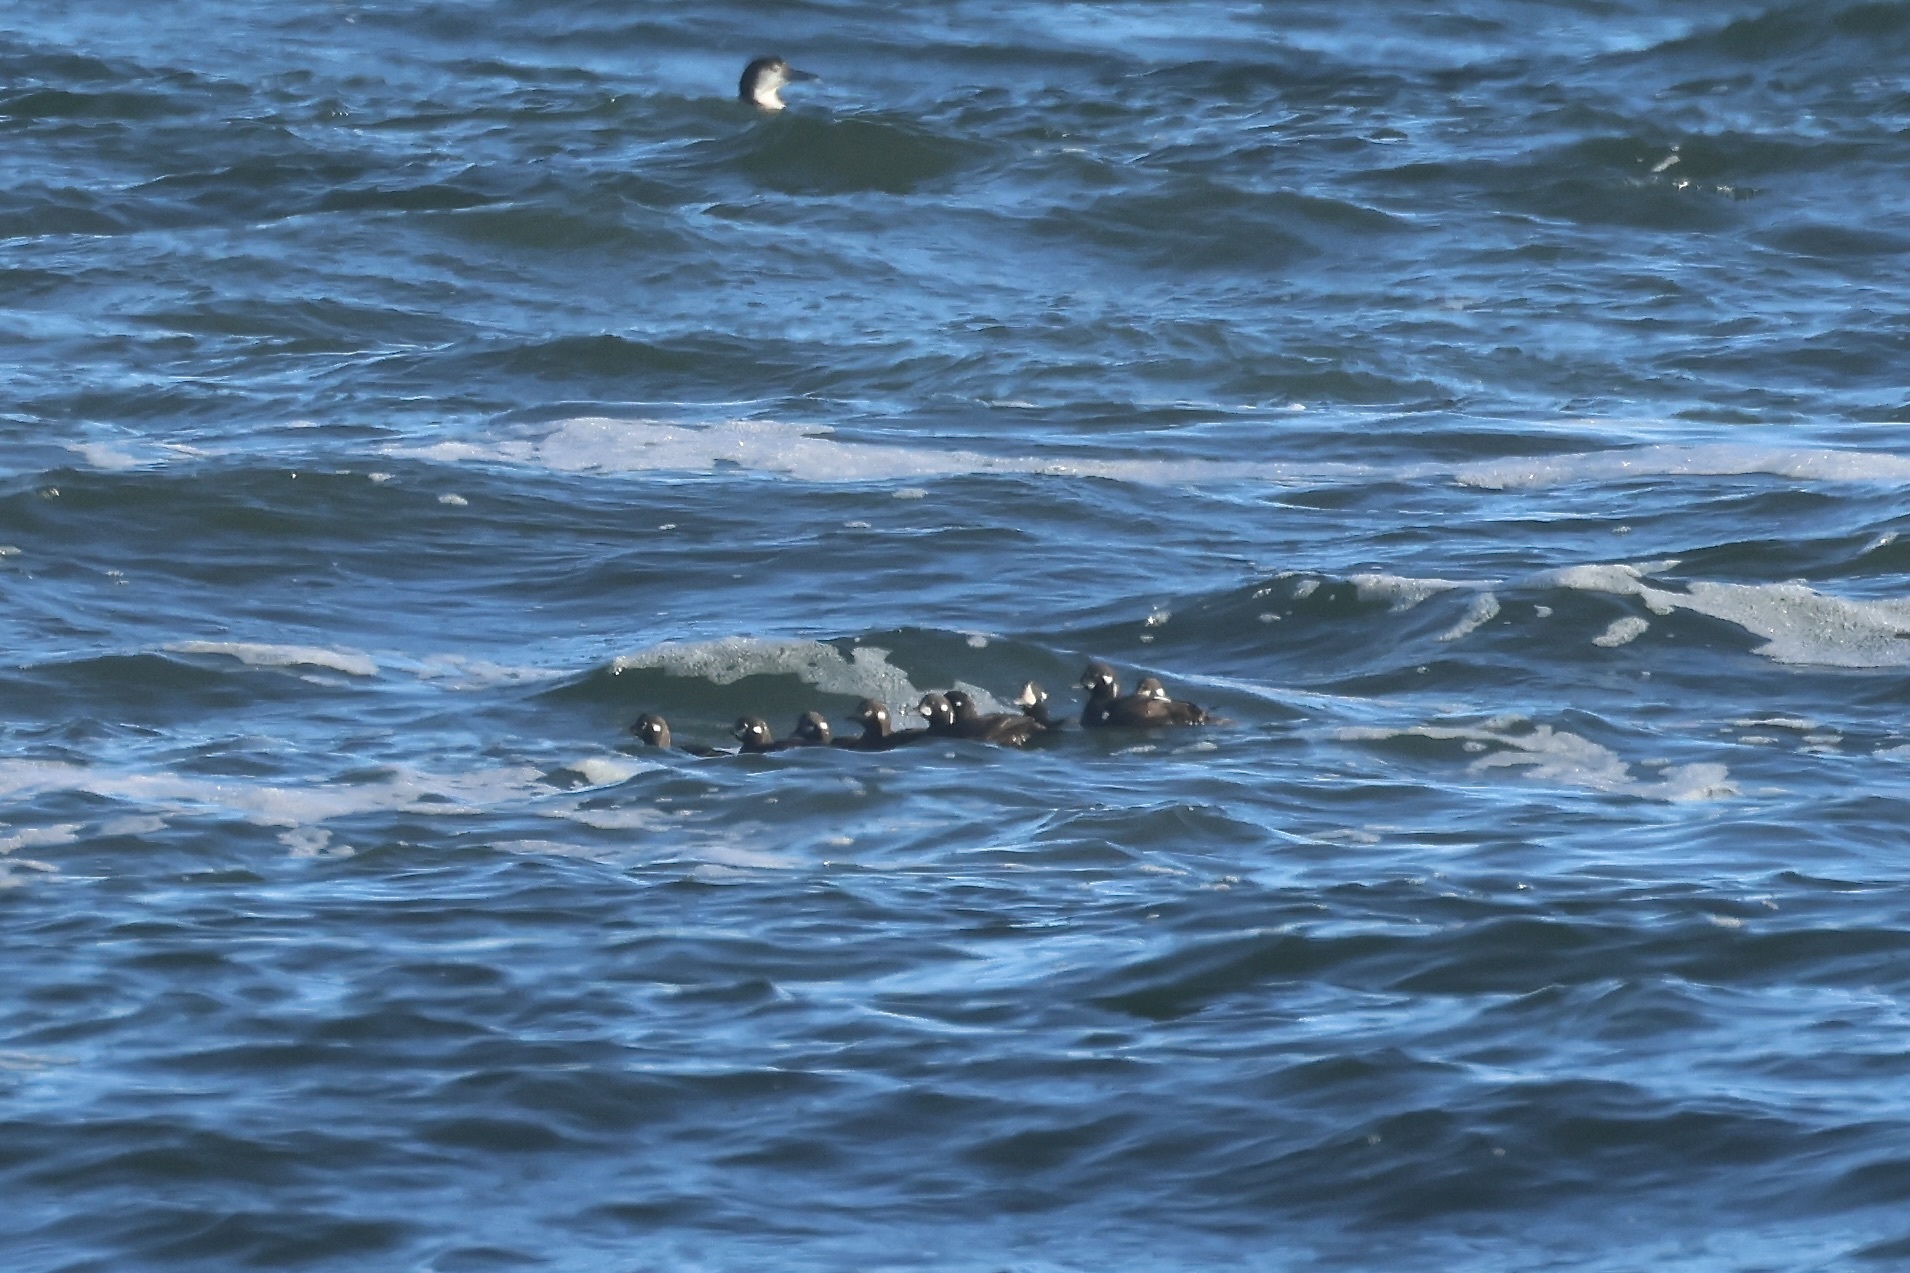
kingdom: Animalia
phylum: Chordata
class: Aves
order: Anseriformes
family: Anatidae
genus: Histrionicus
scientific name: Histrionicus histrionicus
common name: Harlequin duck
